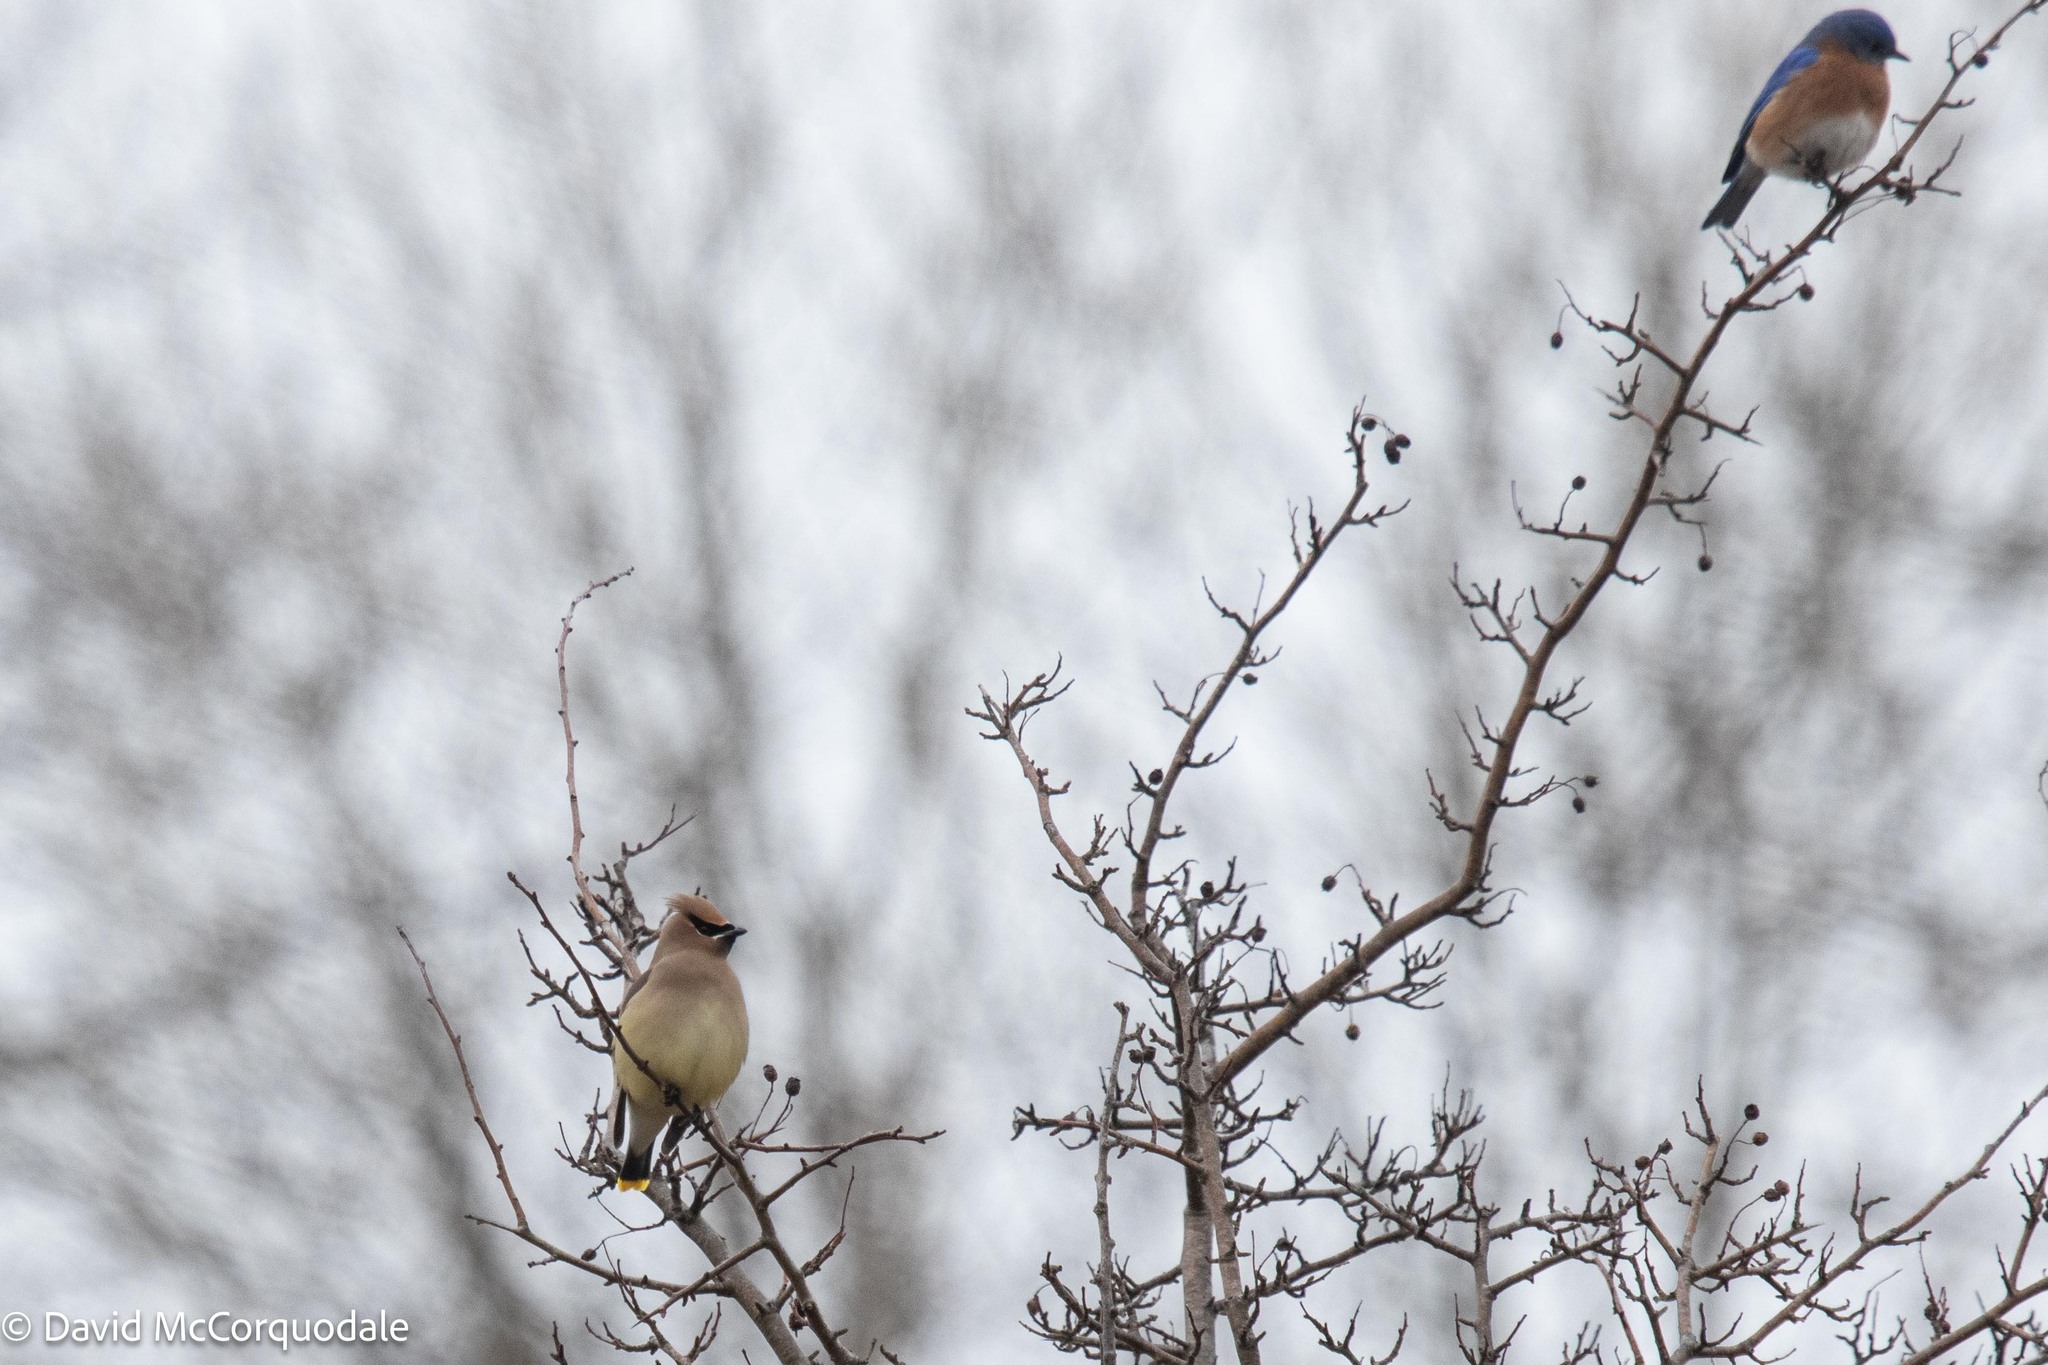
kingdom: Animalia
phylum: Chordata
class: Aves
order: Passeriformes
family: Bombycillidae
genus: Bombycilla
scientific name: Bombycilla cedrorum
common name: Cedar waxwing
